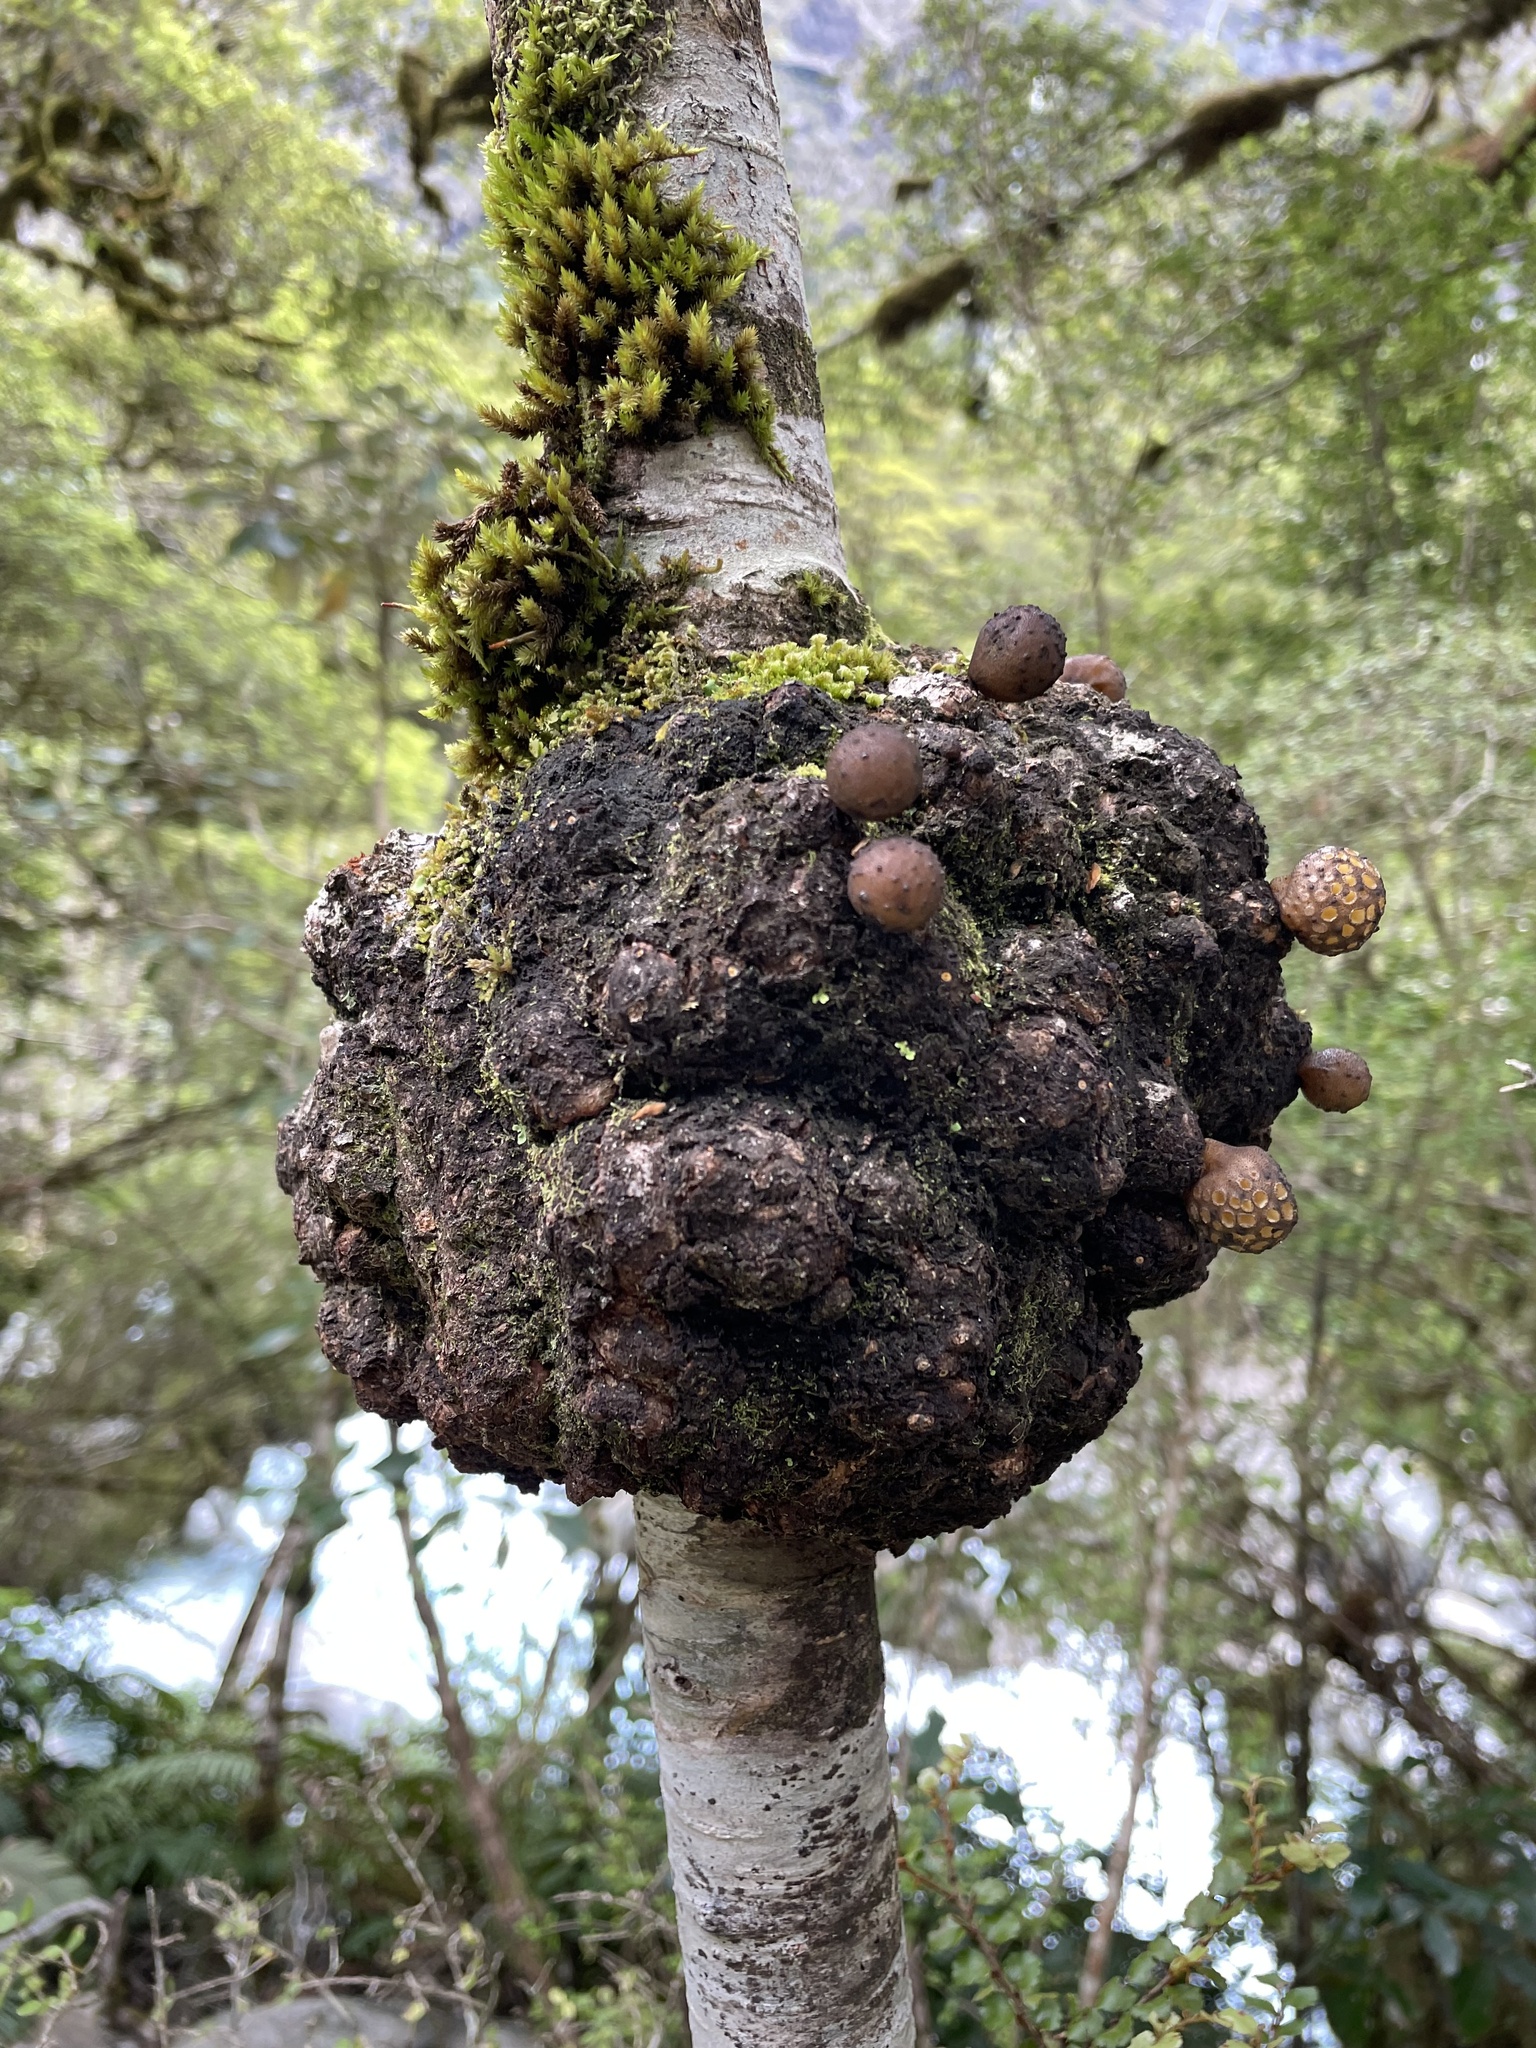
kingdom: Fungi
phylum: Ascomycota
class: Leotiomycetes
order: Cyttariales
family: Cyttariaceae
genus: Cyttaria
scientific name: Cyttaria nigra
